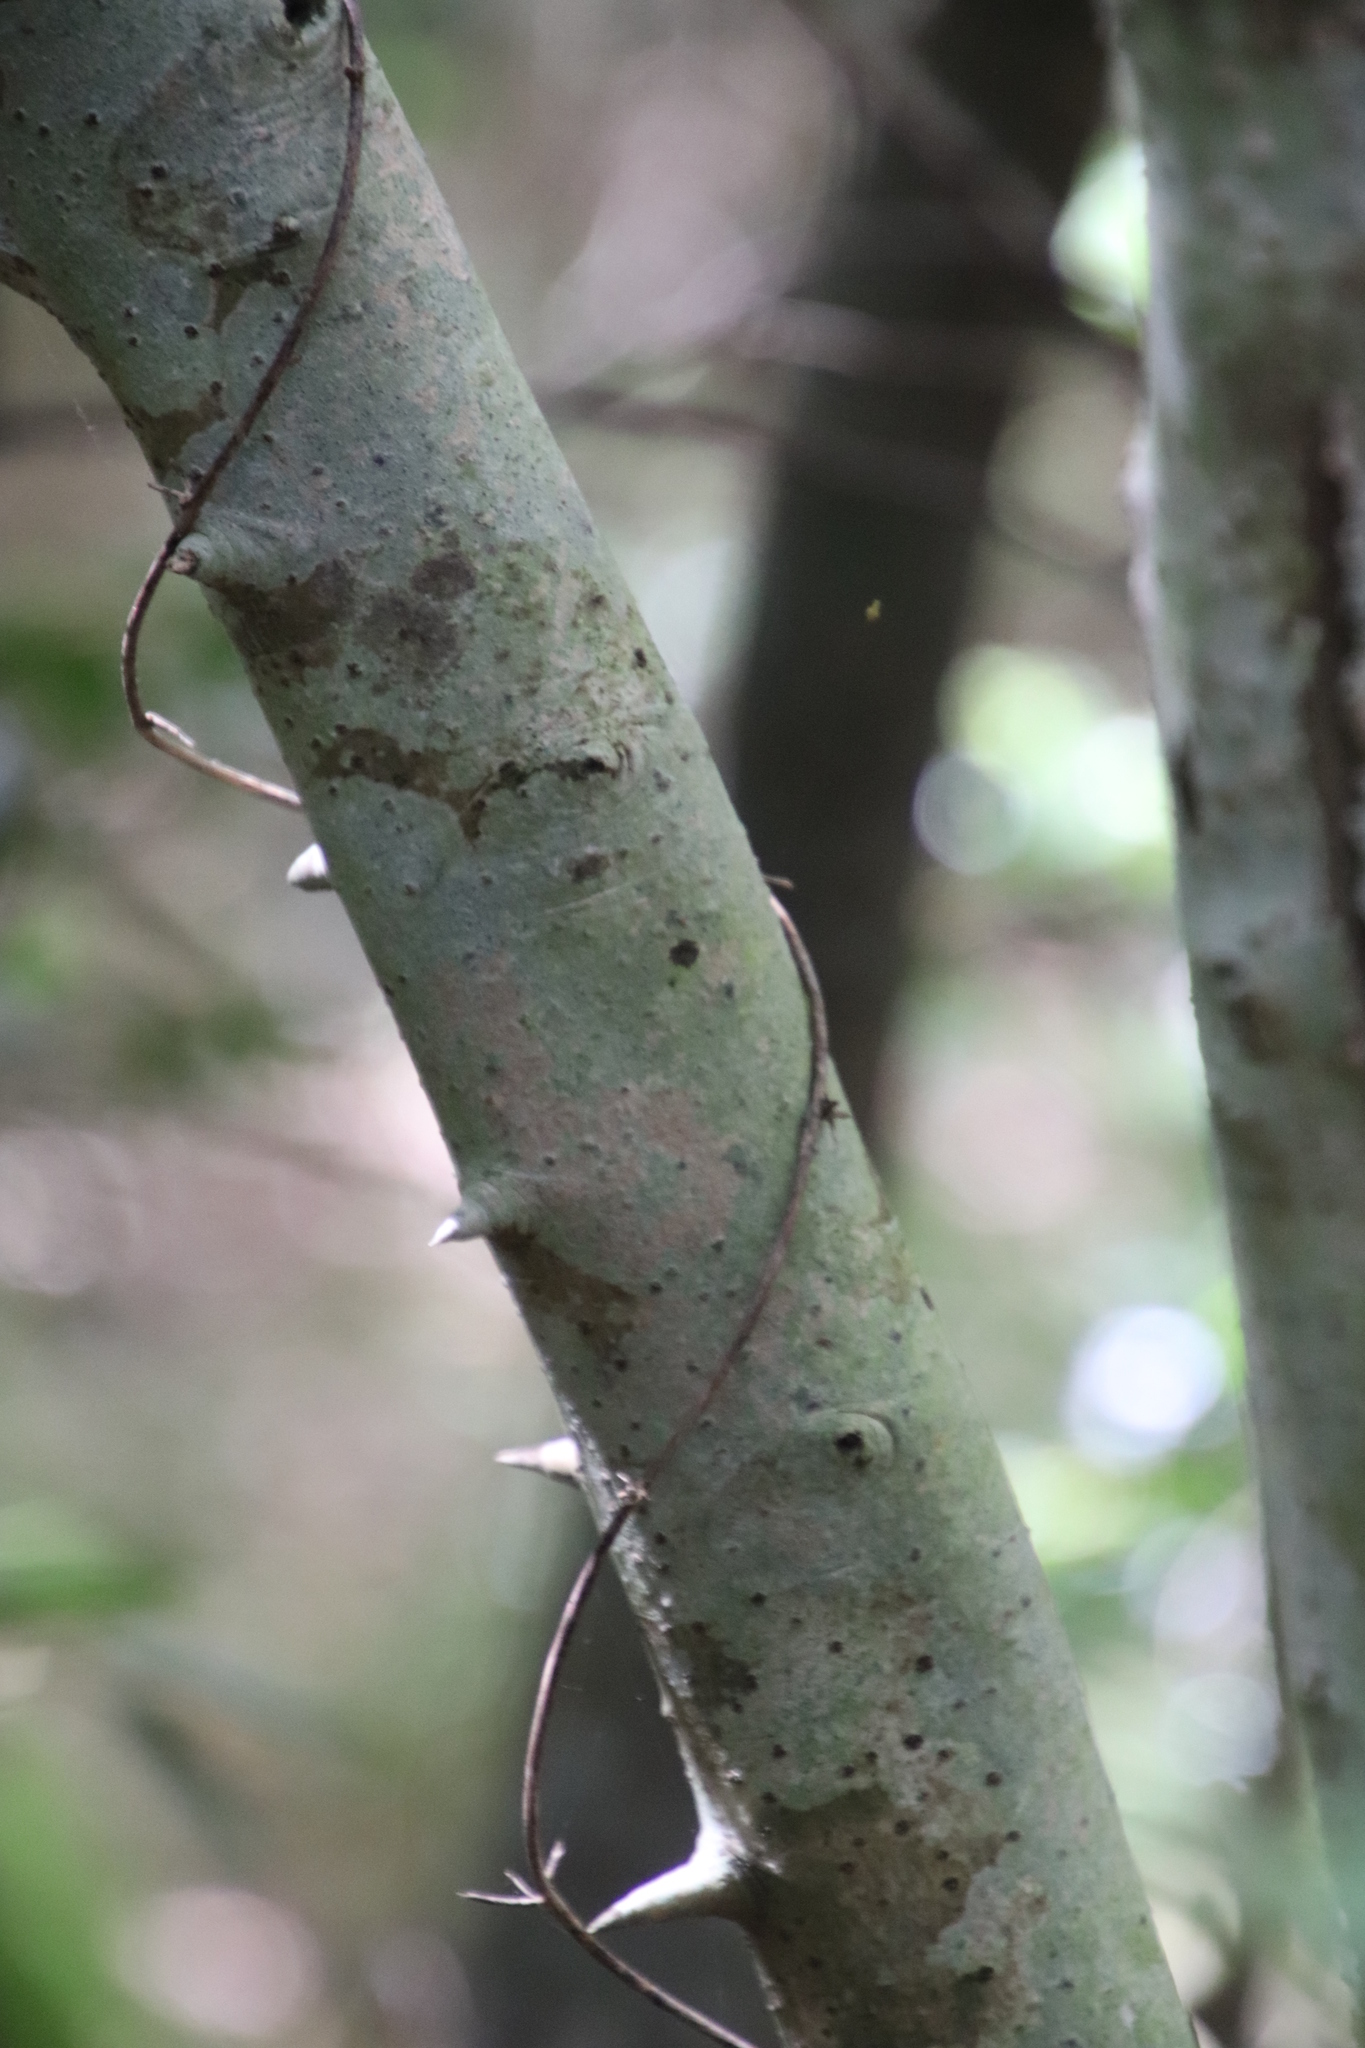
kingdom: Plantae
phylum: Tracheophyta
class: Magnoliopsida
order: Gentianales
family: Rubiaceae
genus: Canthium
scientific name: Canthium inerme
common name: Unarmed turkey-berry
